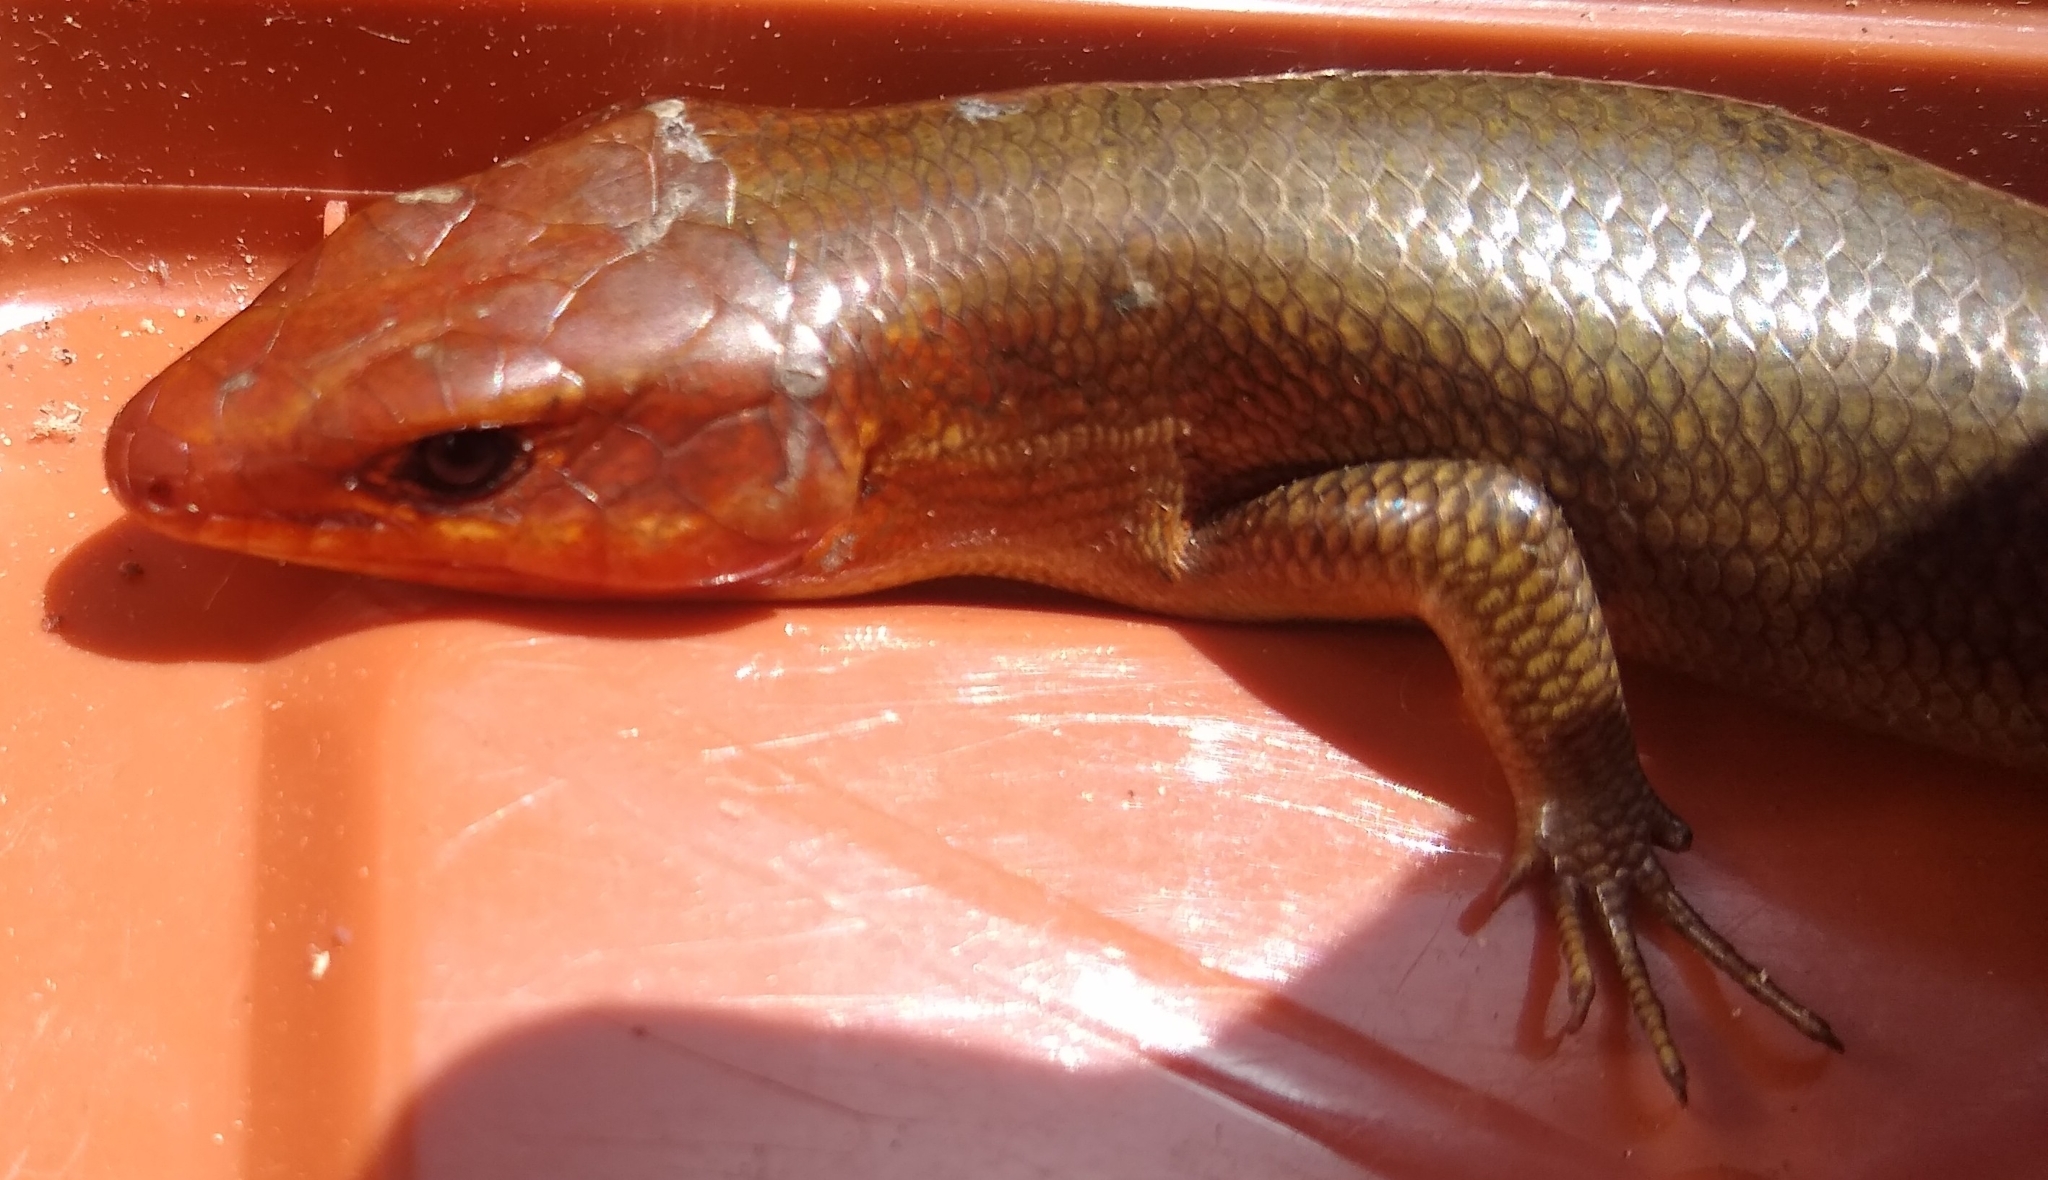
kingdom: Animalia
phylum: Chordata
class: Squamata
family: Scincidae
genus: Plestiodon
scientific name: Plestiodon laticeps
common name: Broadhead skink
